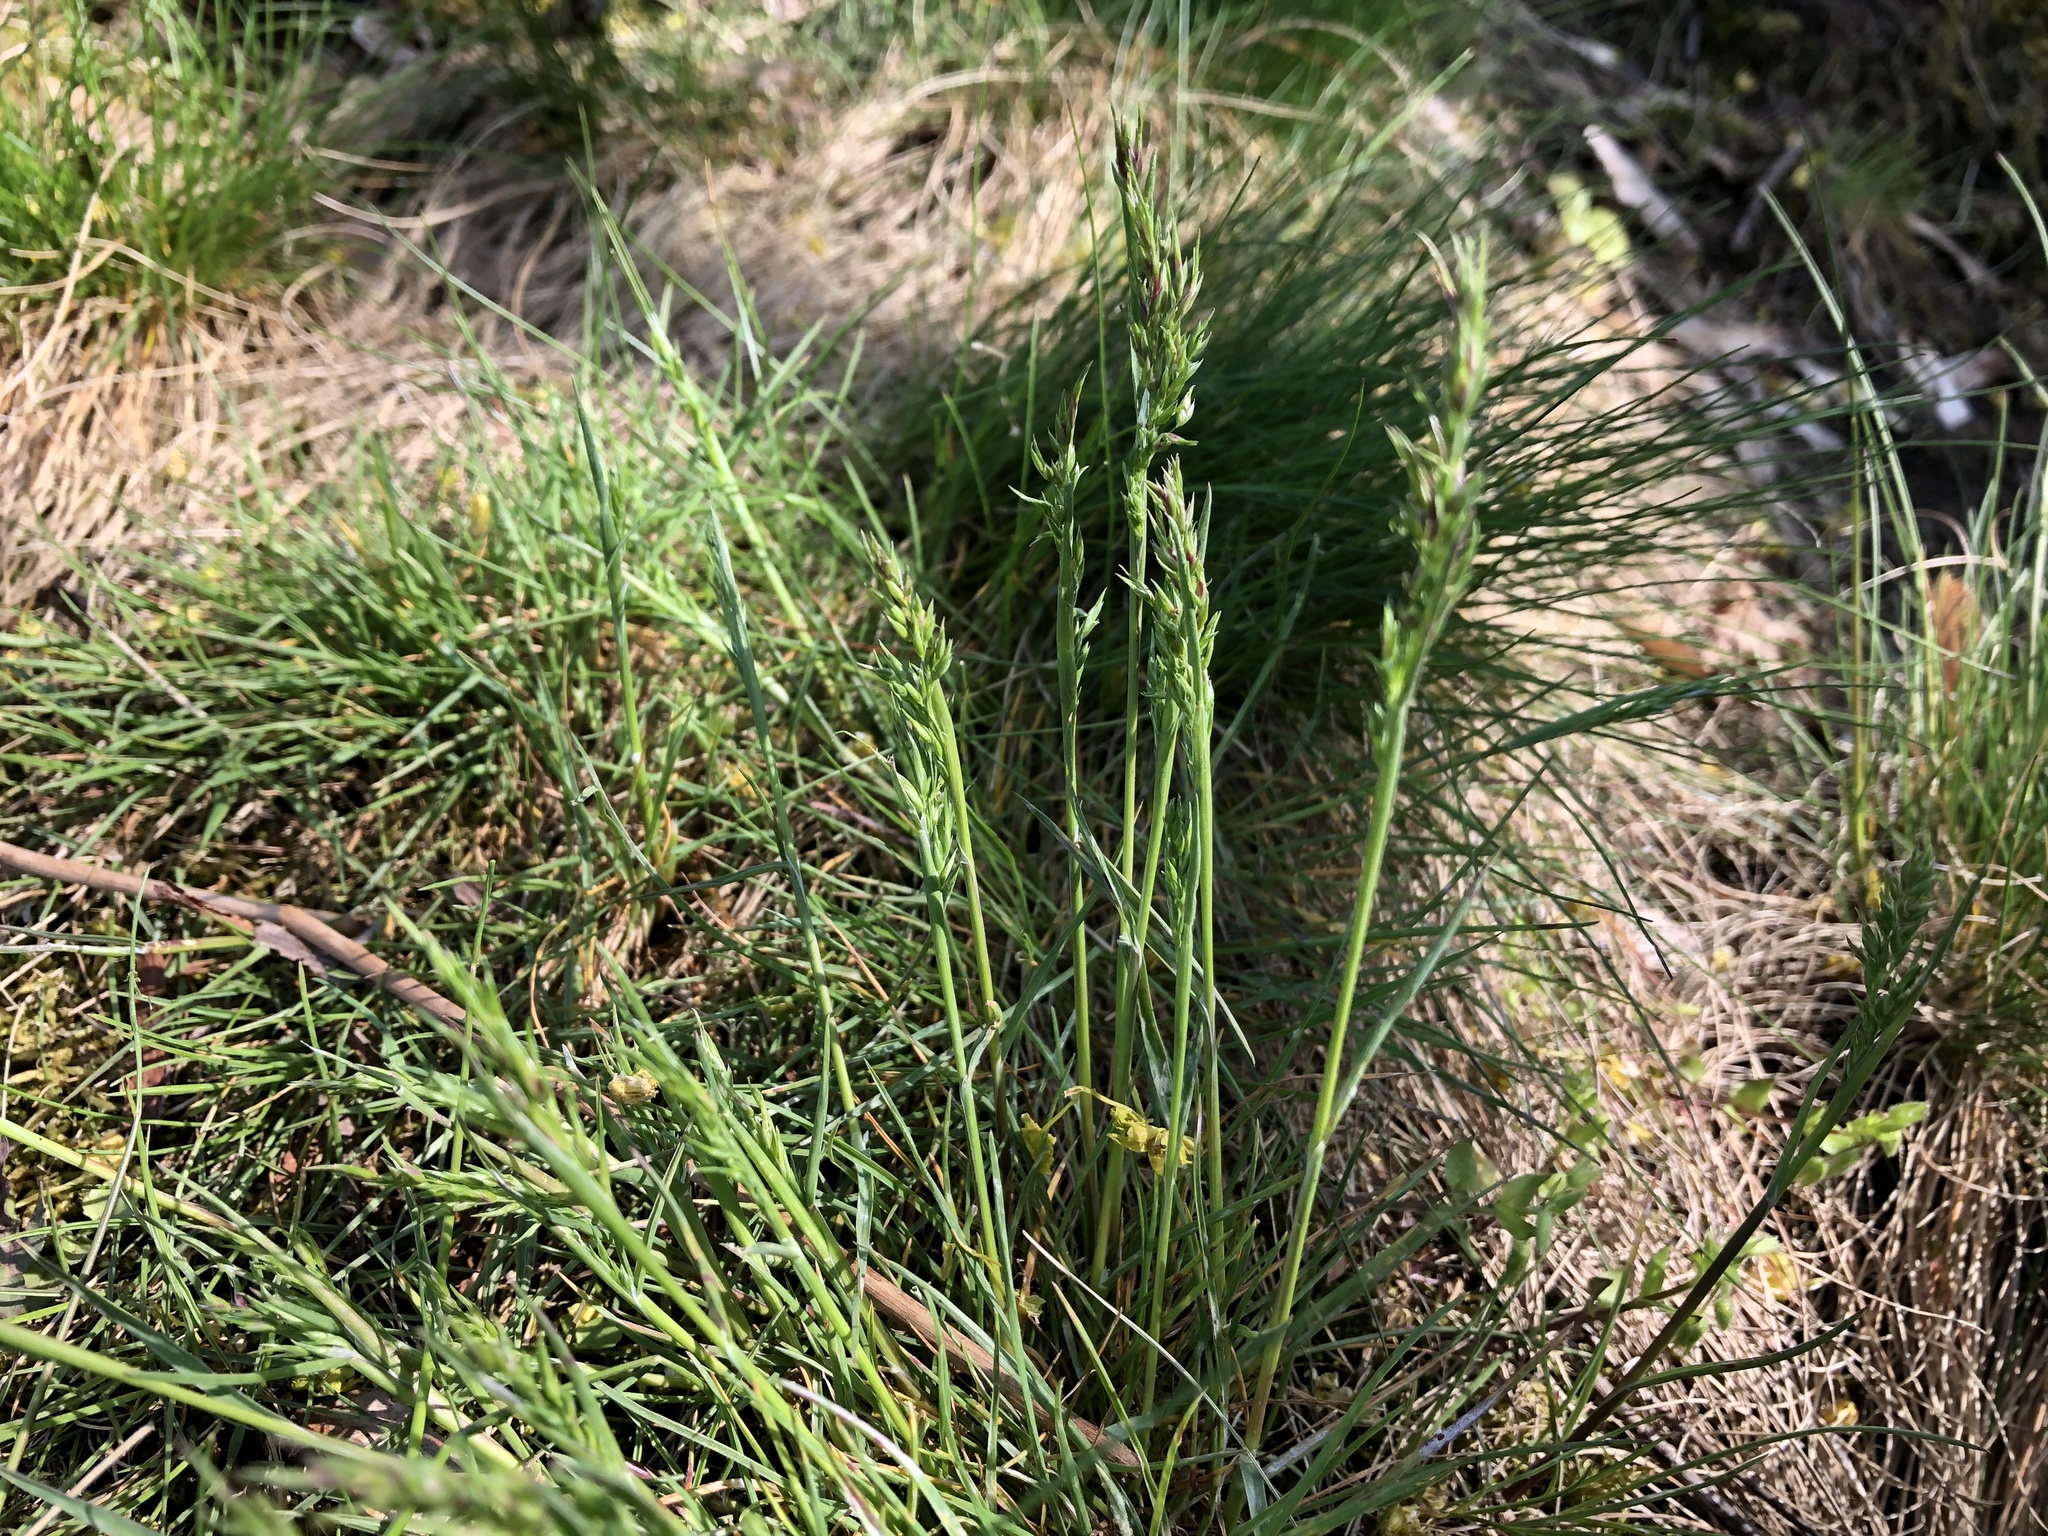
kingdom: Plantae
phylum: Tracheophyta
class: Liliopsida
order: Poales
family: Poaceae
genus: Poa
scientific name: Poa bulbosa
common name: Bulbous bluegrass
